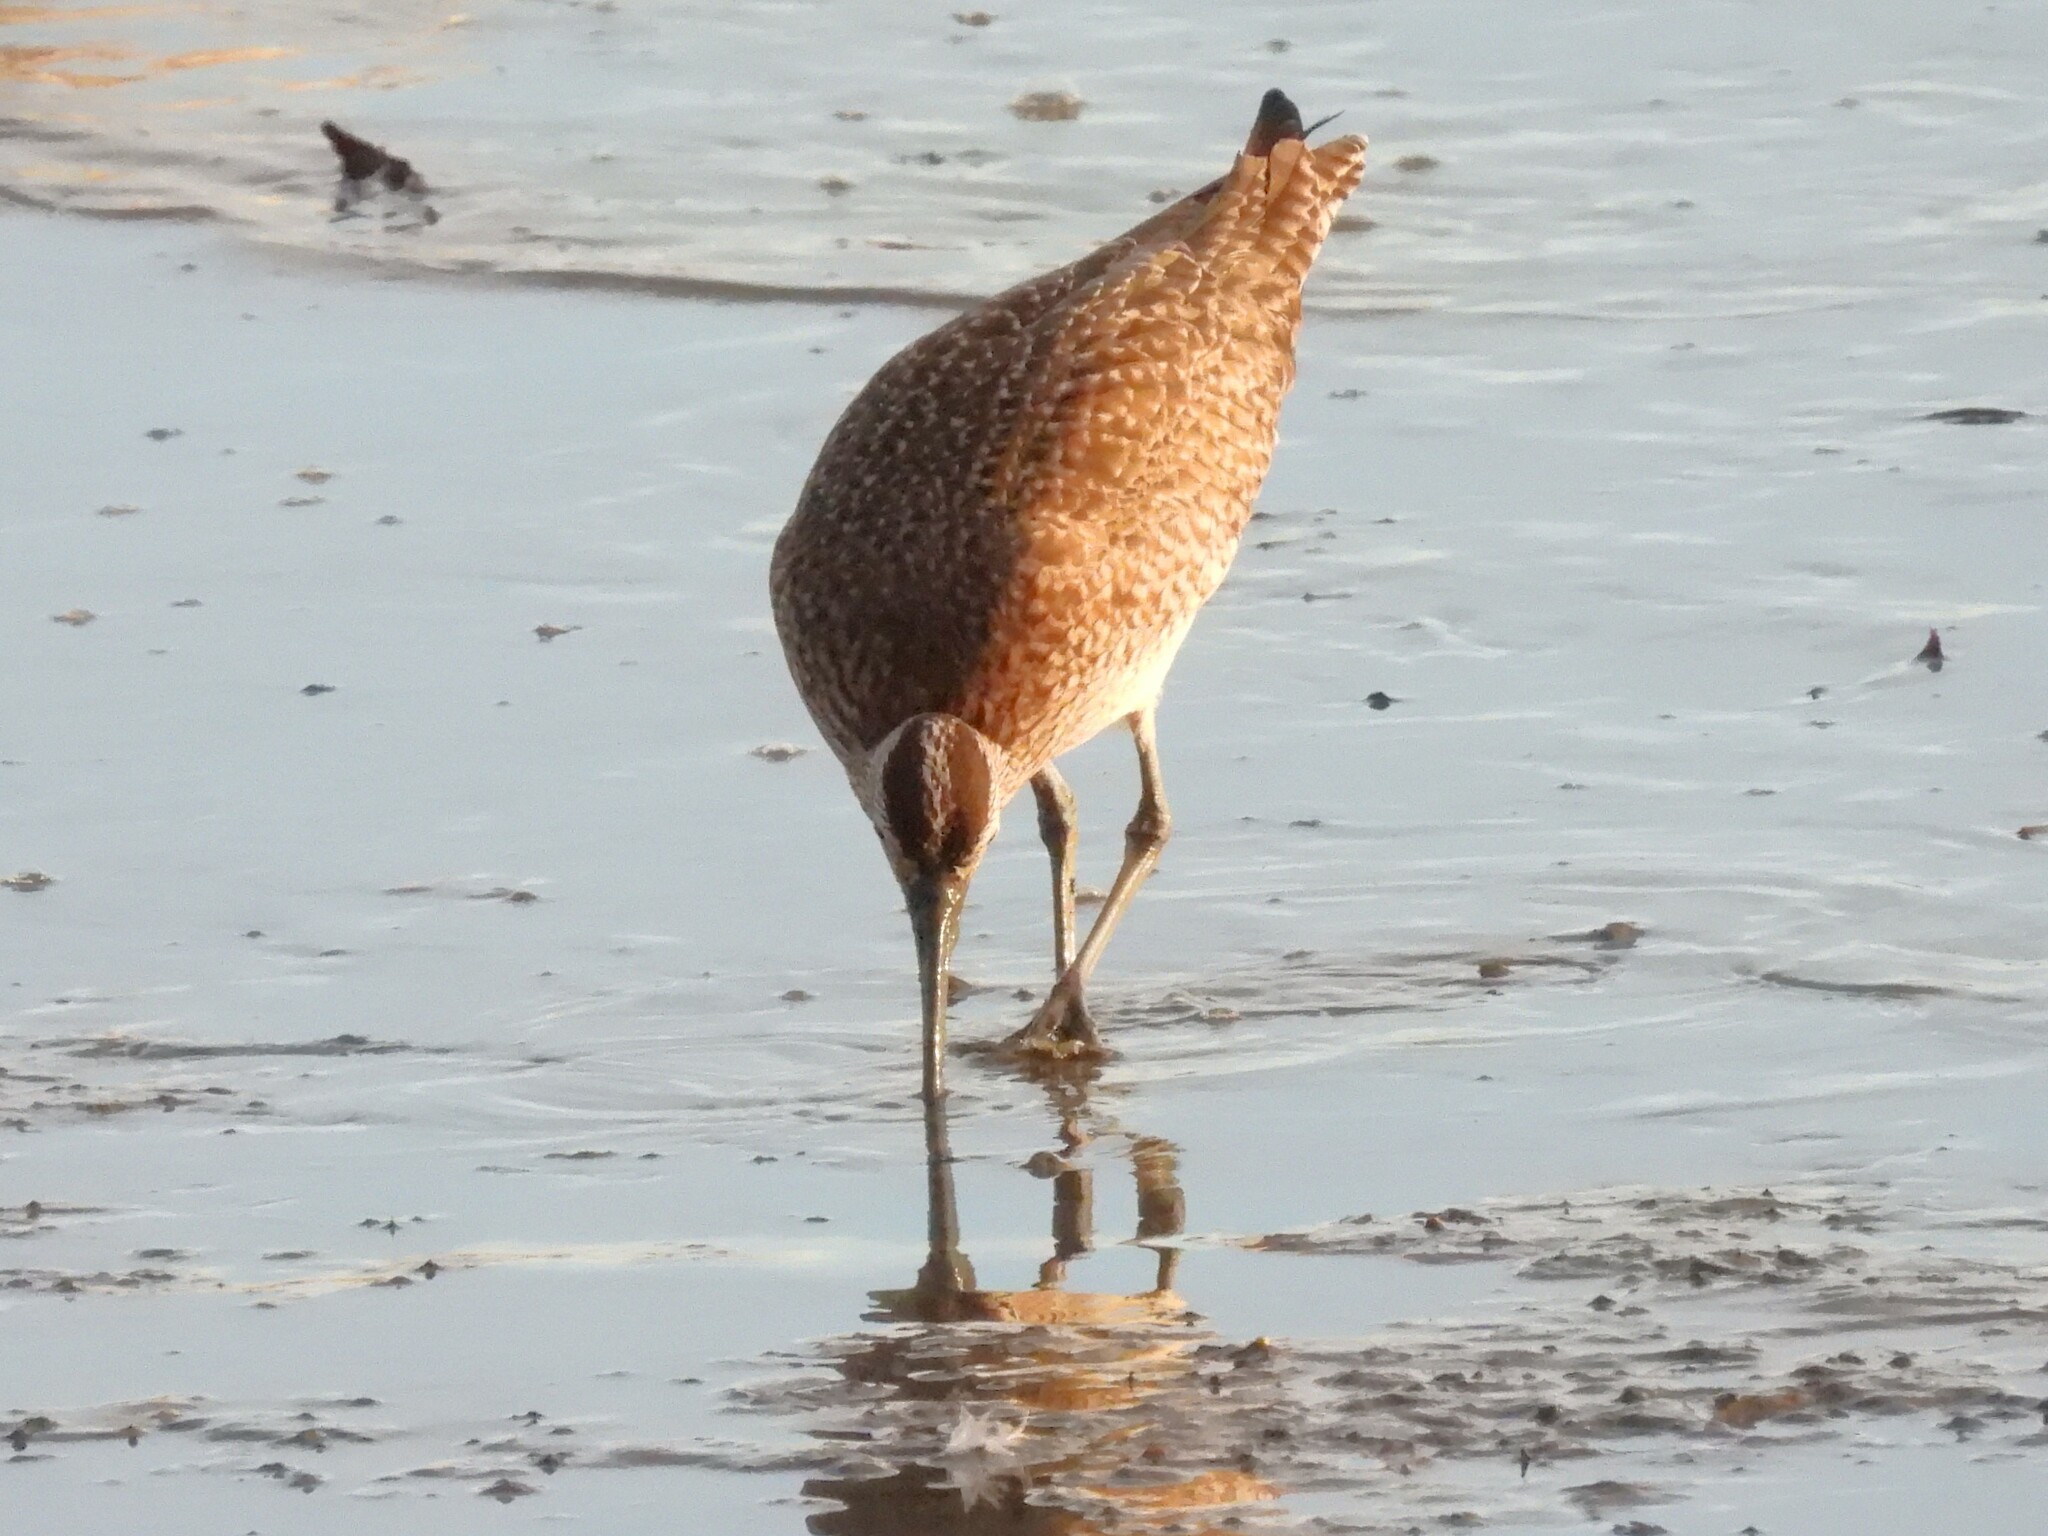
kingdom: Animalia
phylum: Chordata
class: Aves
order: Charadriiformes
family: Scolopacidae
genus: Numenius
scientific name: Numenius phaeopus
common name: Whimbrel
